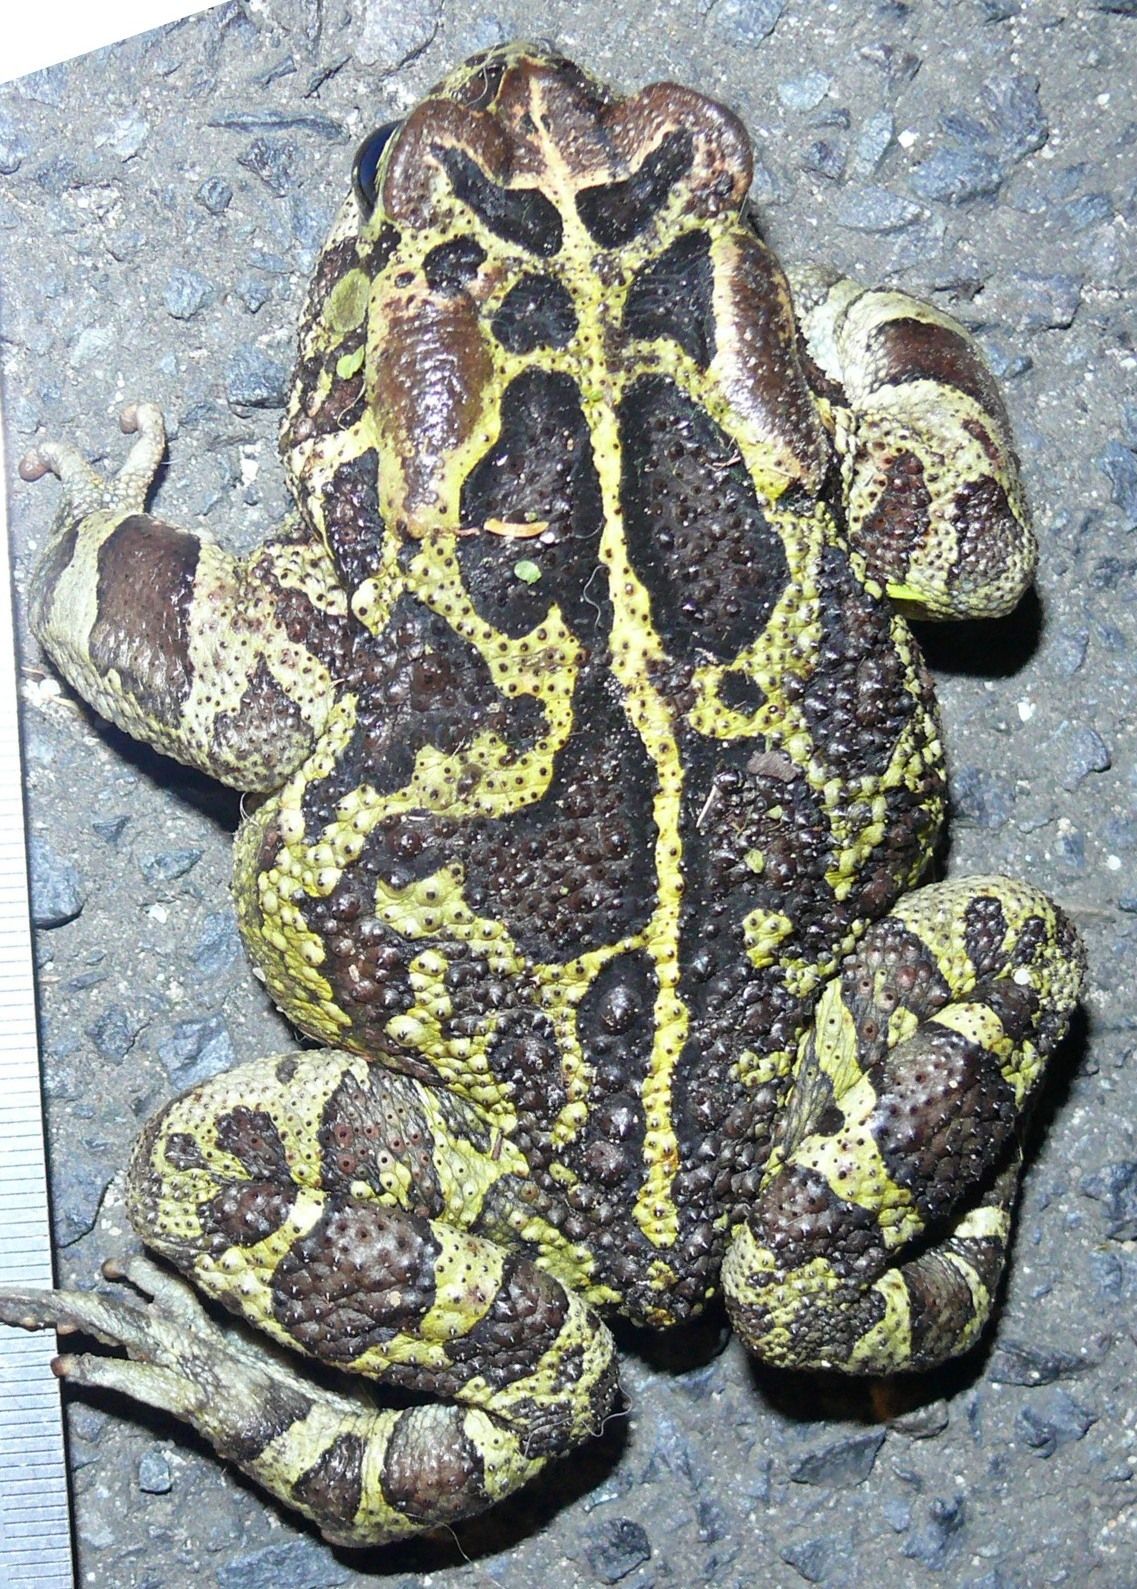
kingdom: Animalia
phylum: Chordata
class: Amphibia
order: Anura
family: Bufonidae
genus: Sclerophrys
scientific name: Sclerophrys pantherina
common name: Panther toad
